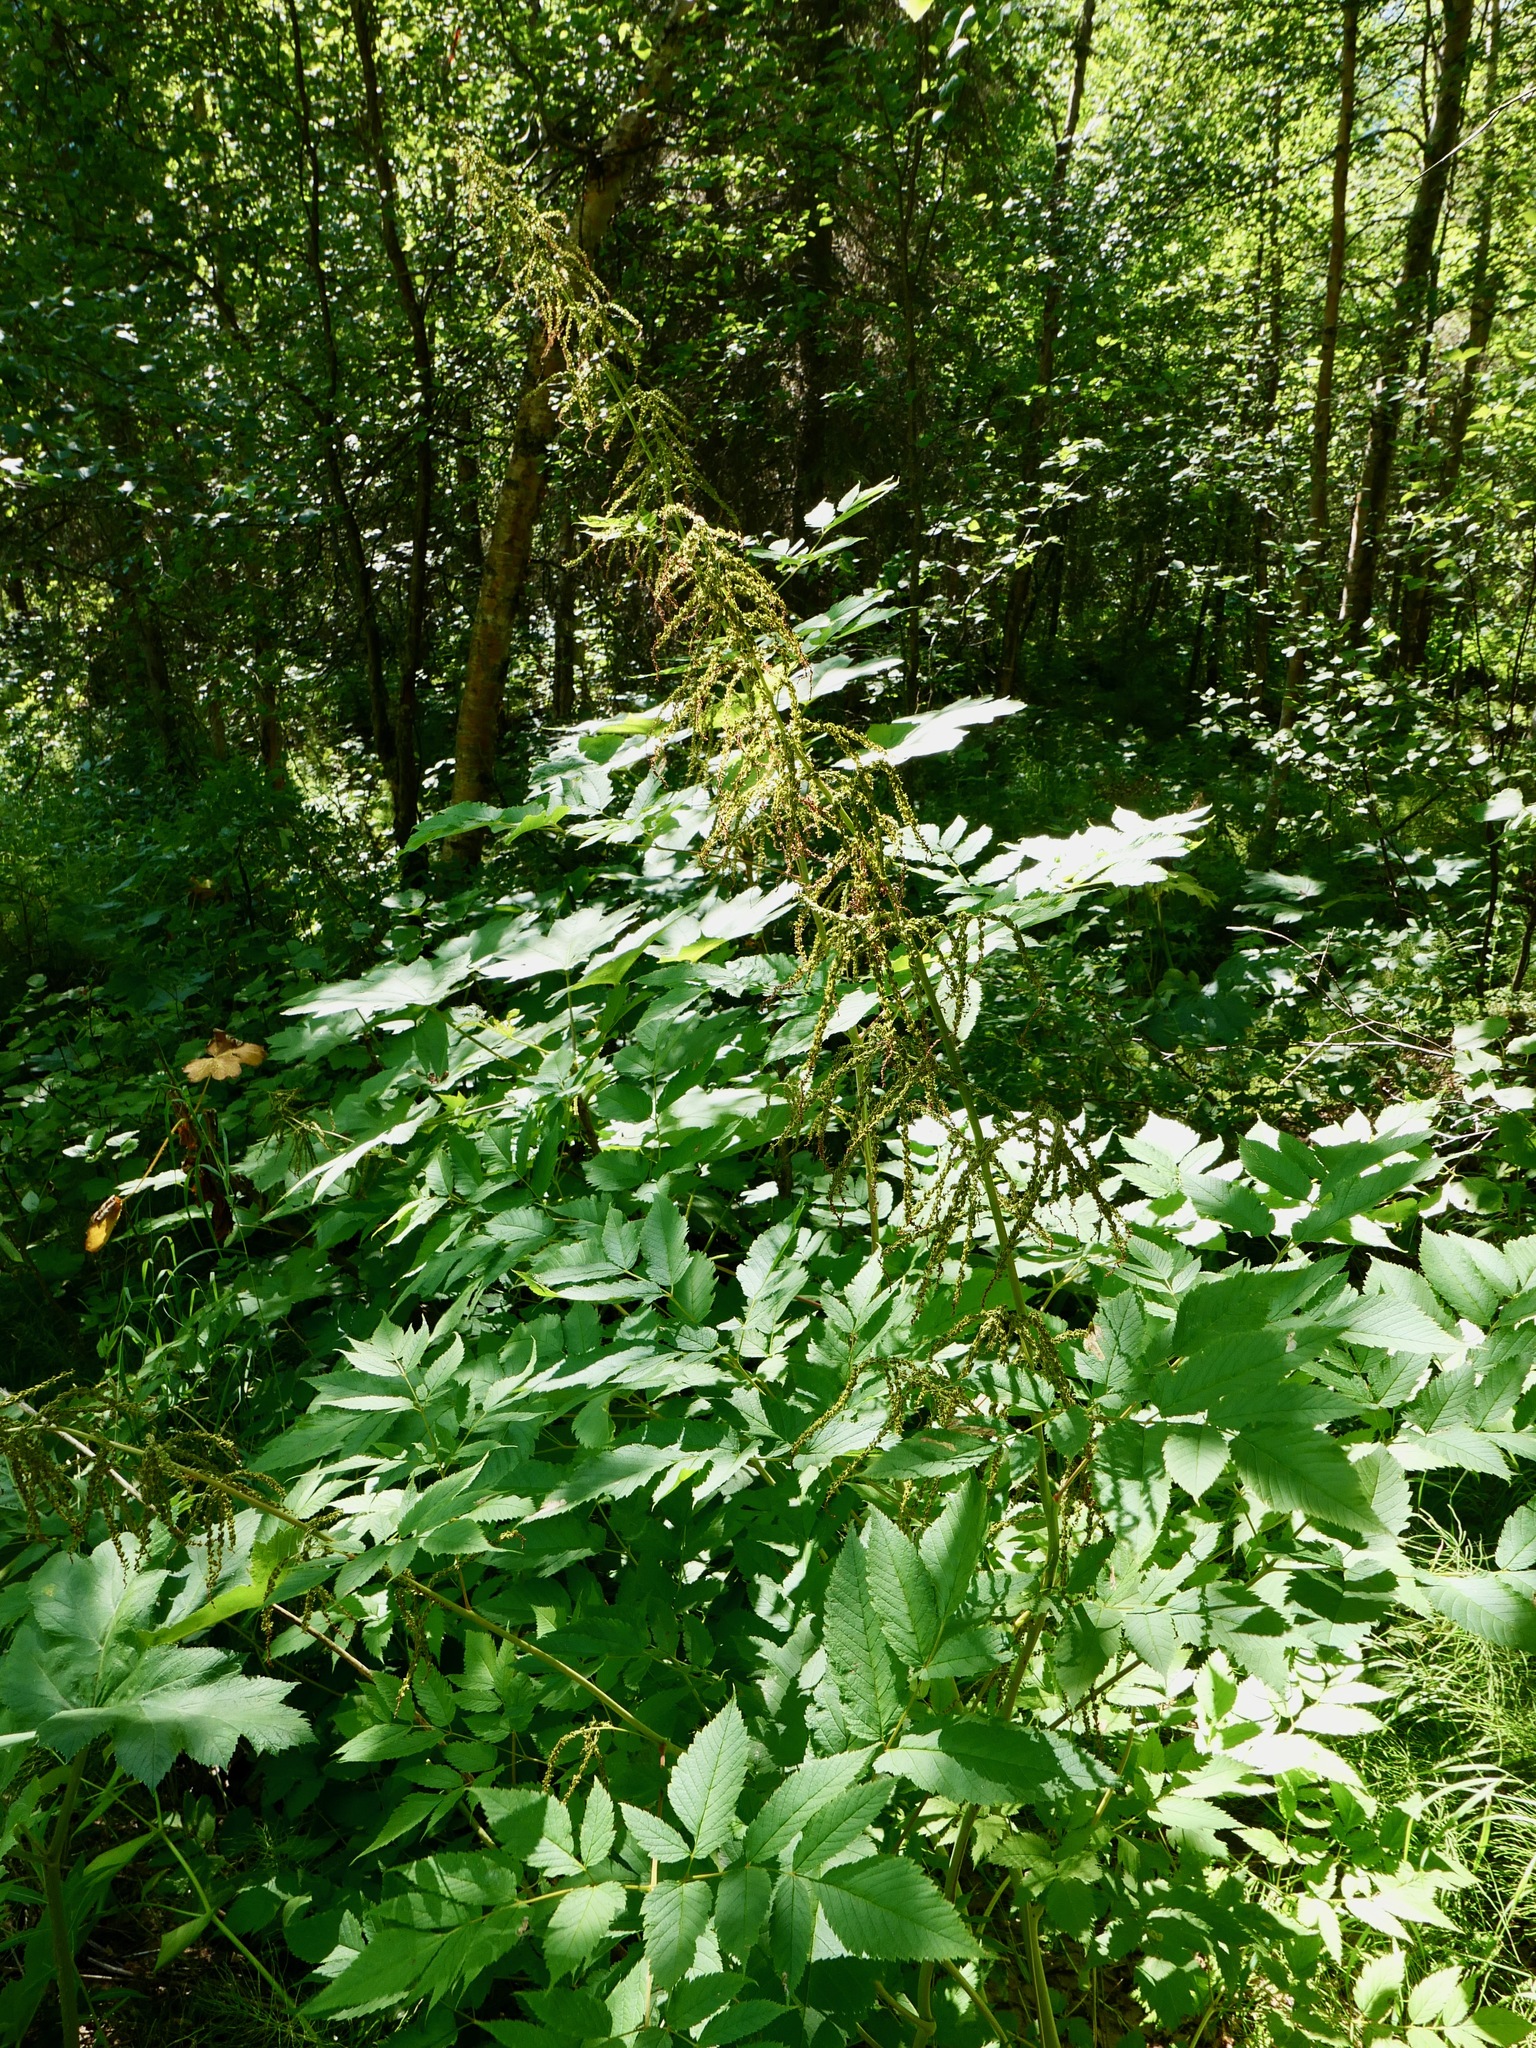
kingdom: Plantae
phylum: Tracheophyta
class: Magnoliopsida
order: Rosales
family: Rosaceae
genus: Aruncus
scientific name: Aruncus dioicus
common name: Buck's-beard
